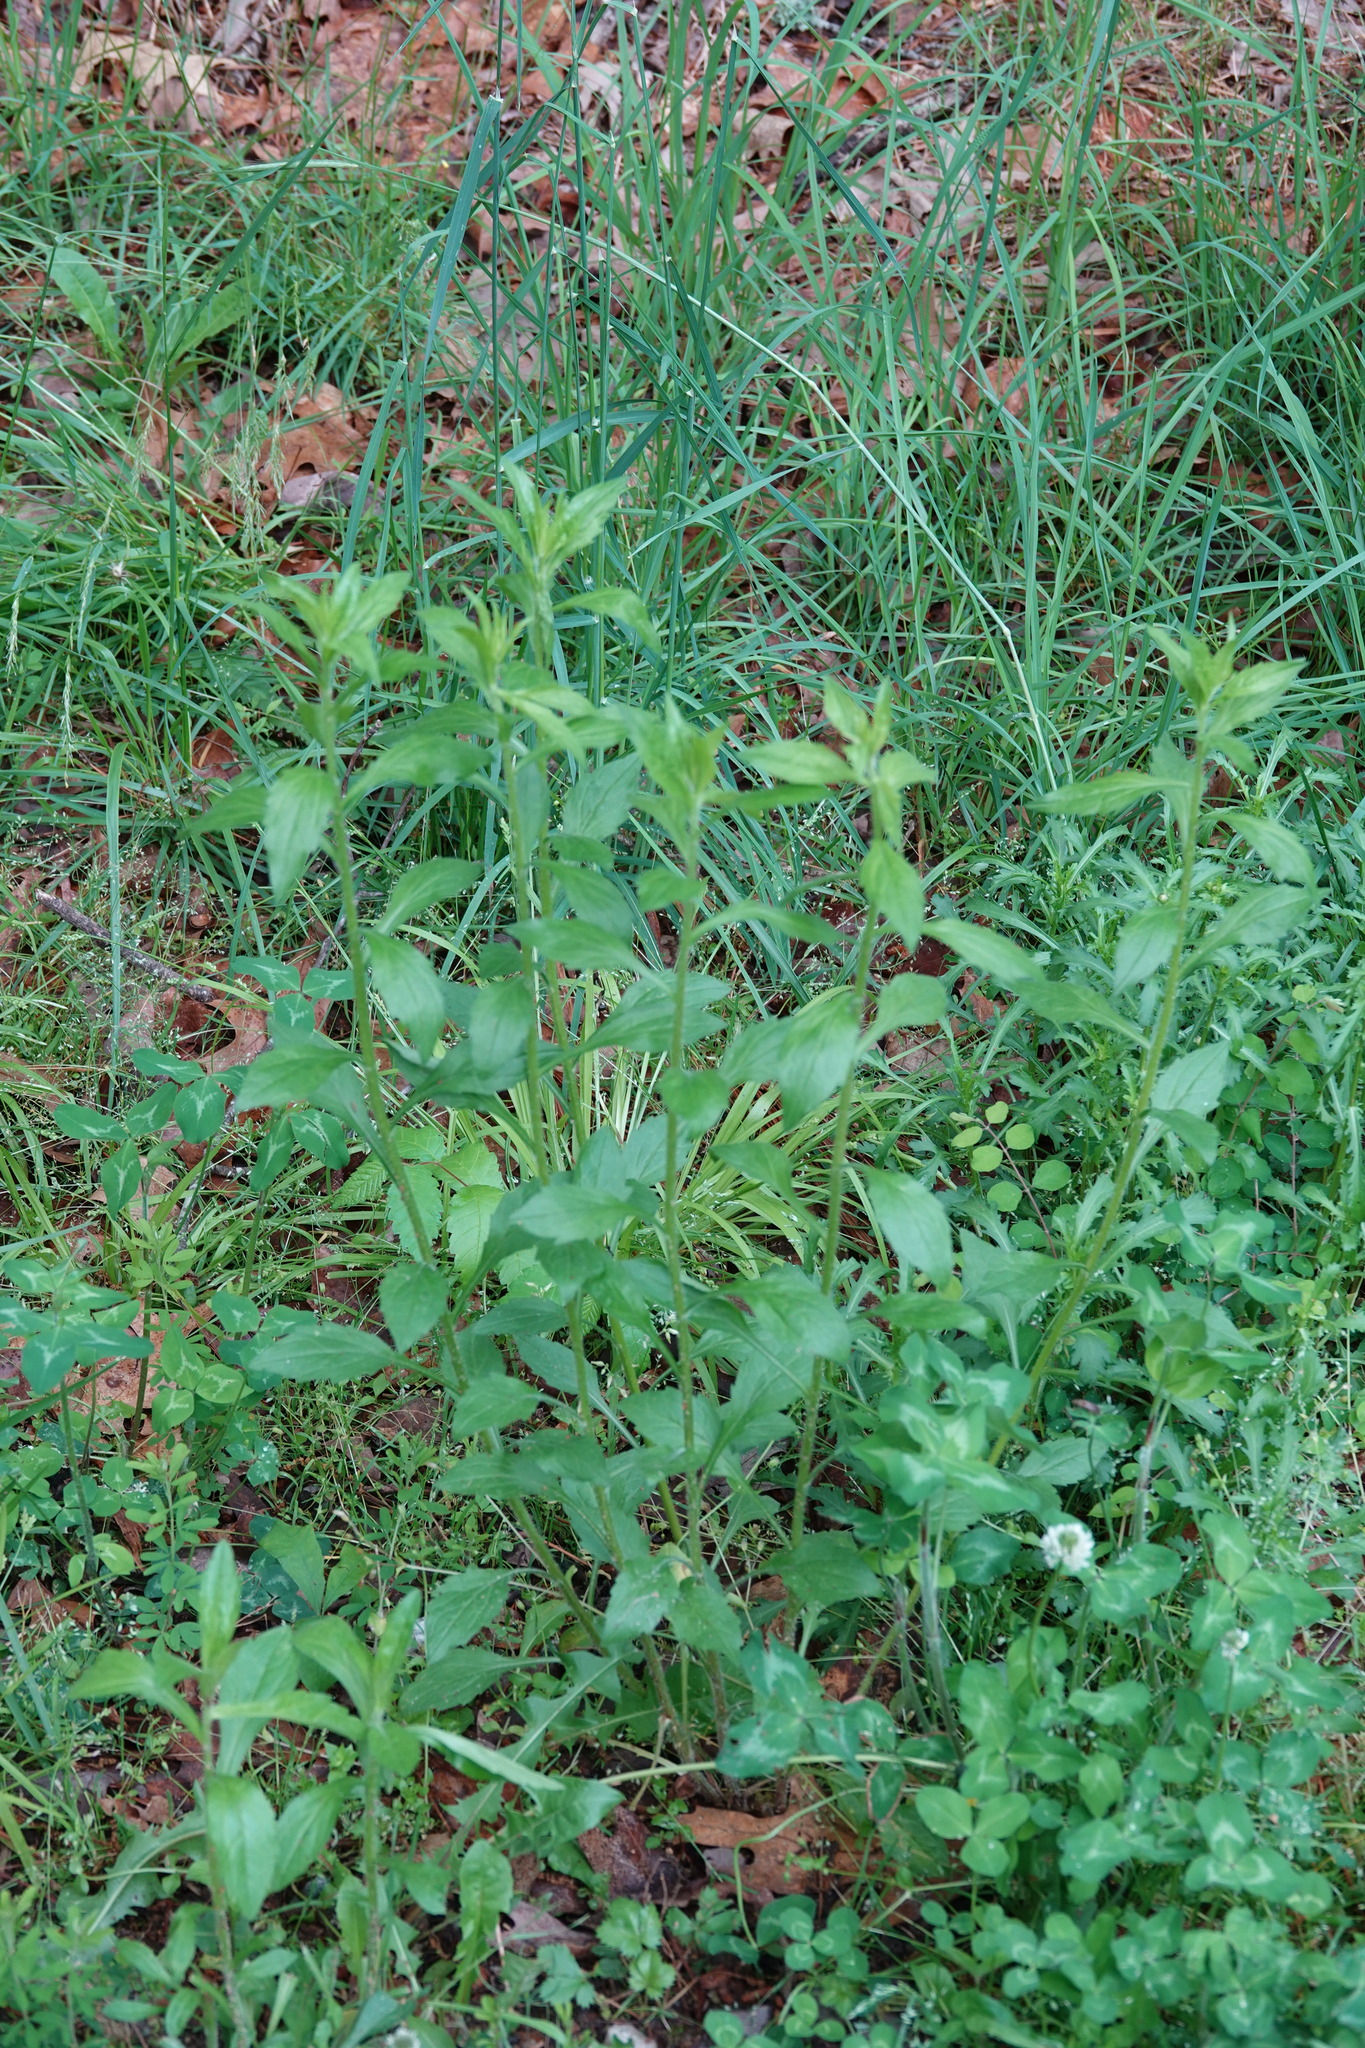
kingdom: Plantae
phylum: Tracheophyta
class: Magnoliopsida
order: Asterales
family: Asteraceae
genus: Erigeron
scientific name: Erigeron annuus
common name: Tall fleabane
